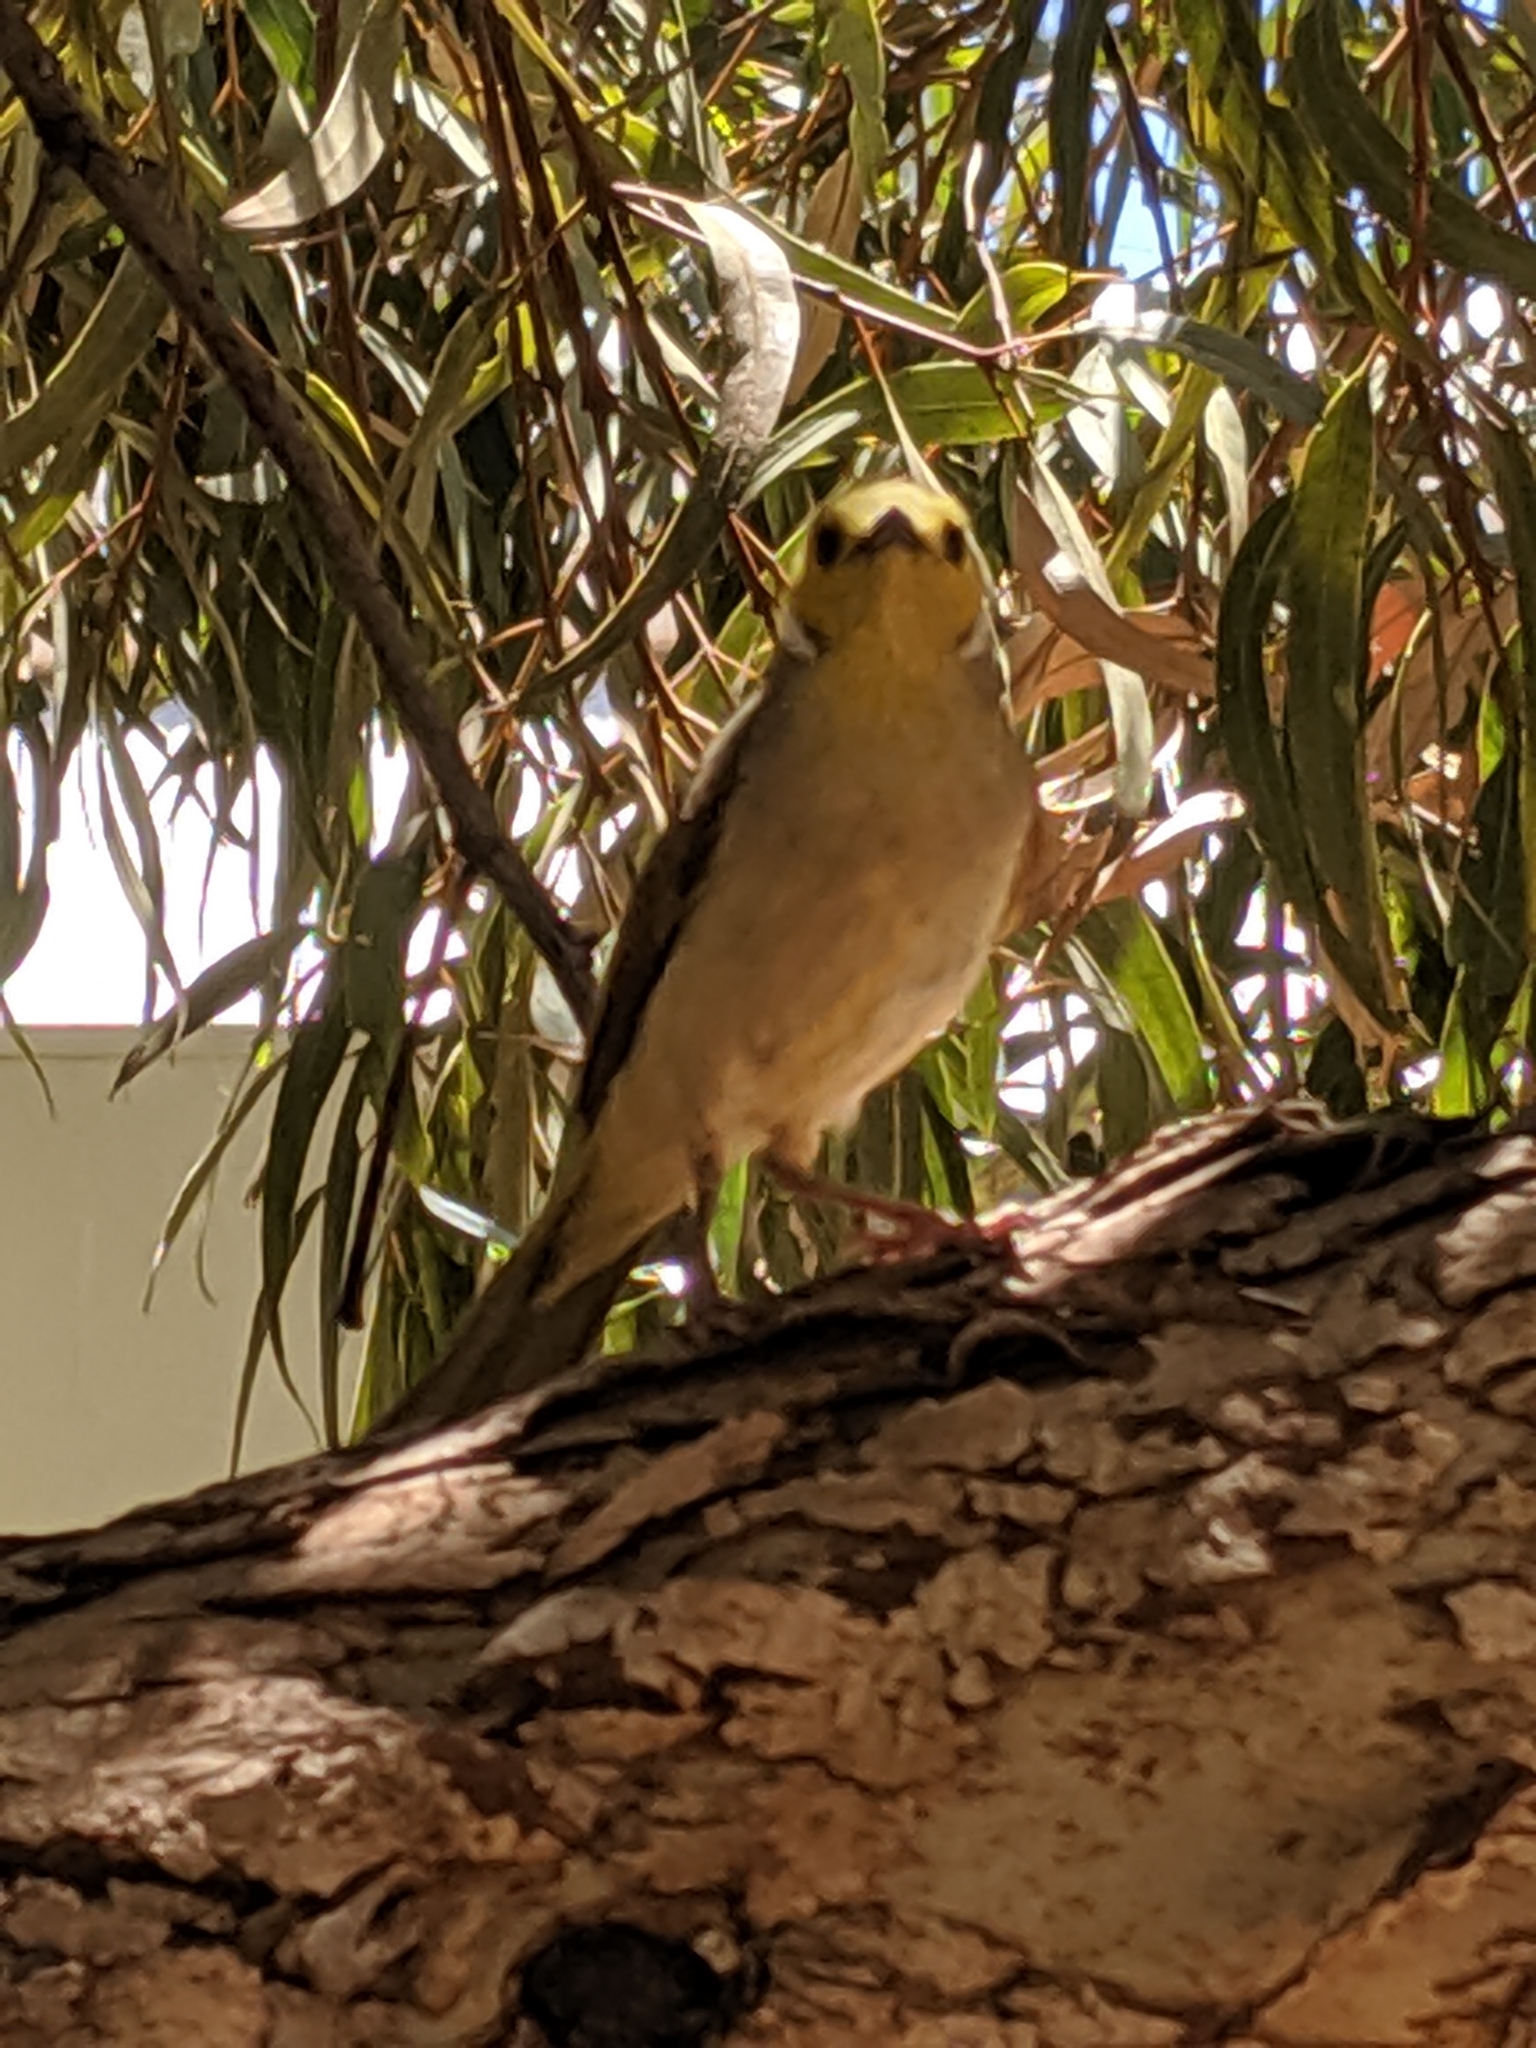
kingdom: Animalia
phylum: Chordata
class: Aves
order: Passeriformes
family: Meliphagidae
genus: Ptilotula
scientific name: Ptilotula penicillata
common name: White-plumed honeyeater
